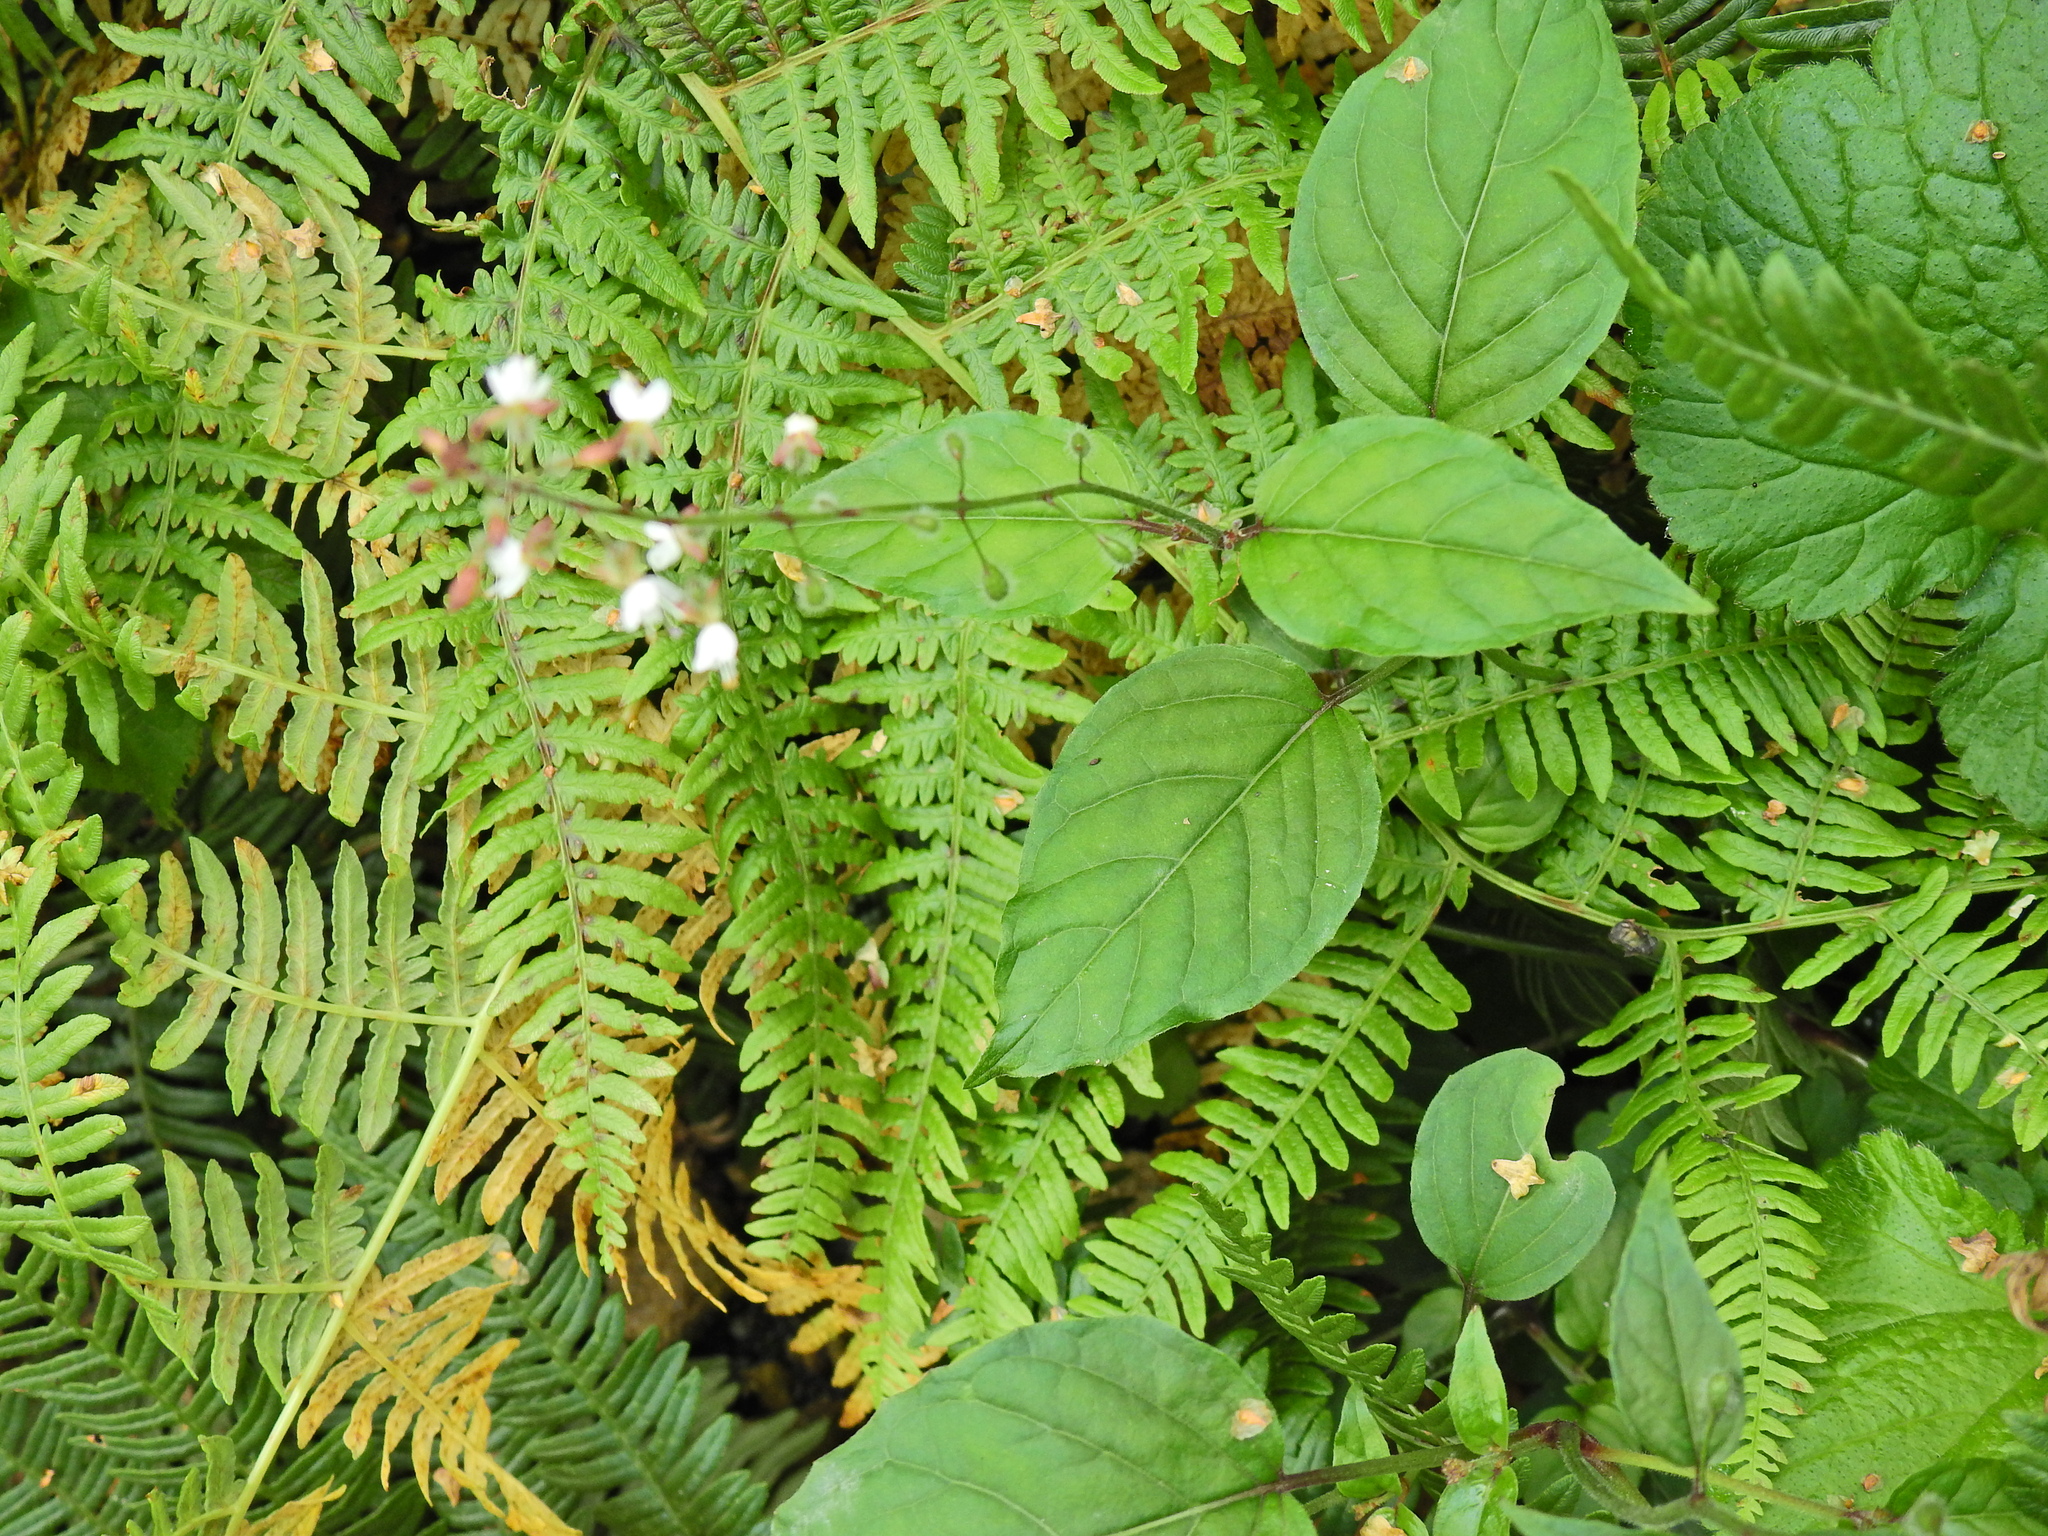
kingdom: Plantae
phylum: Tracheophyta
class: Magnoliopsida
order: Myrtales
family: Onagraceae
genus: Circaea
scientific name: Circaea lutetiana
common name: Enchanter's-nightshade
